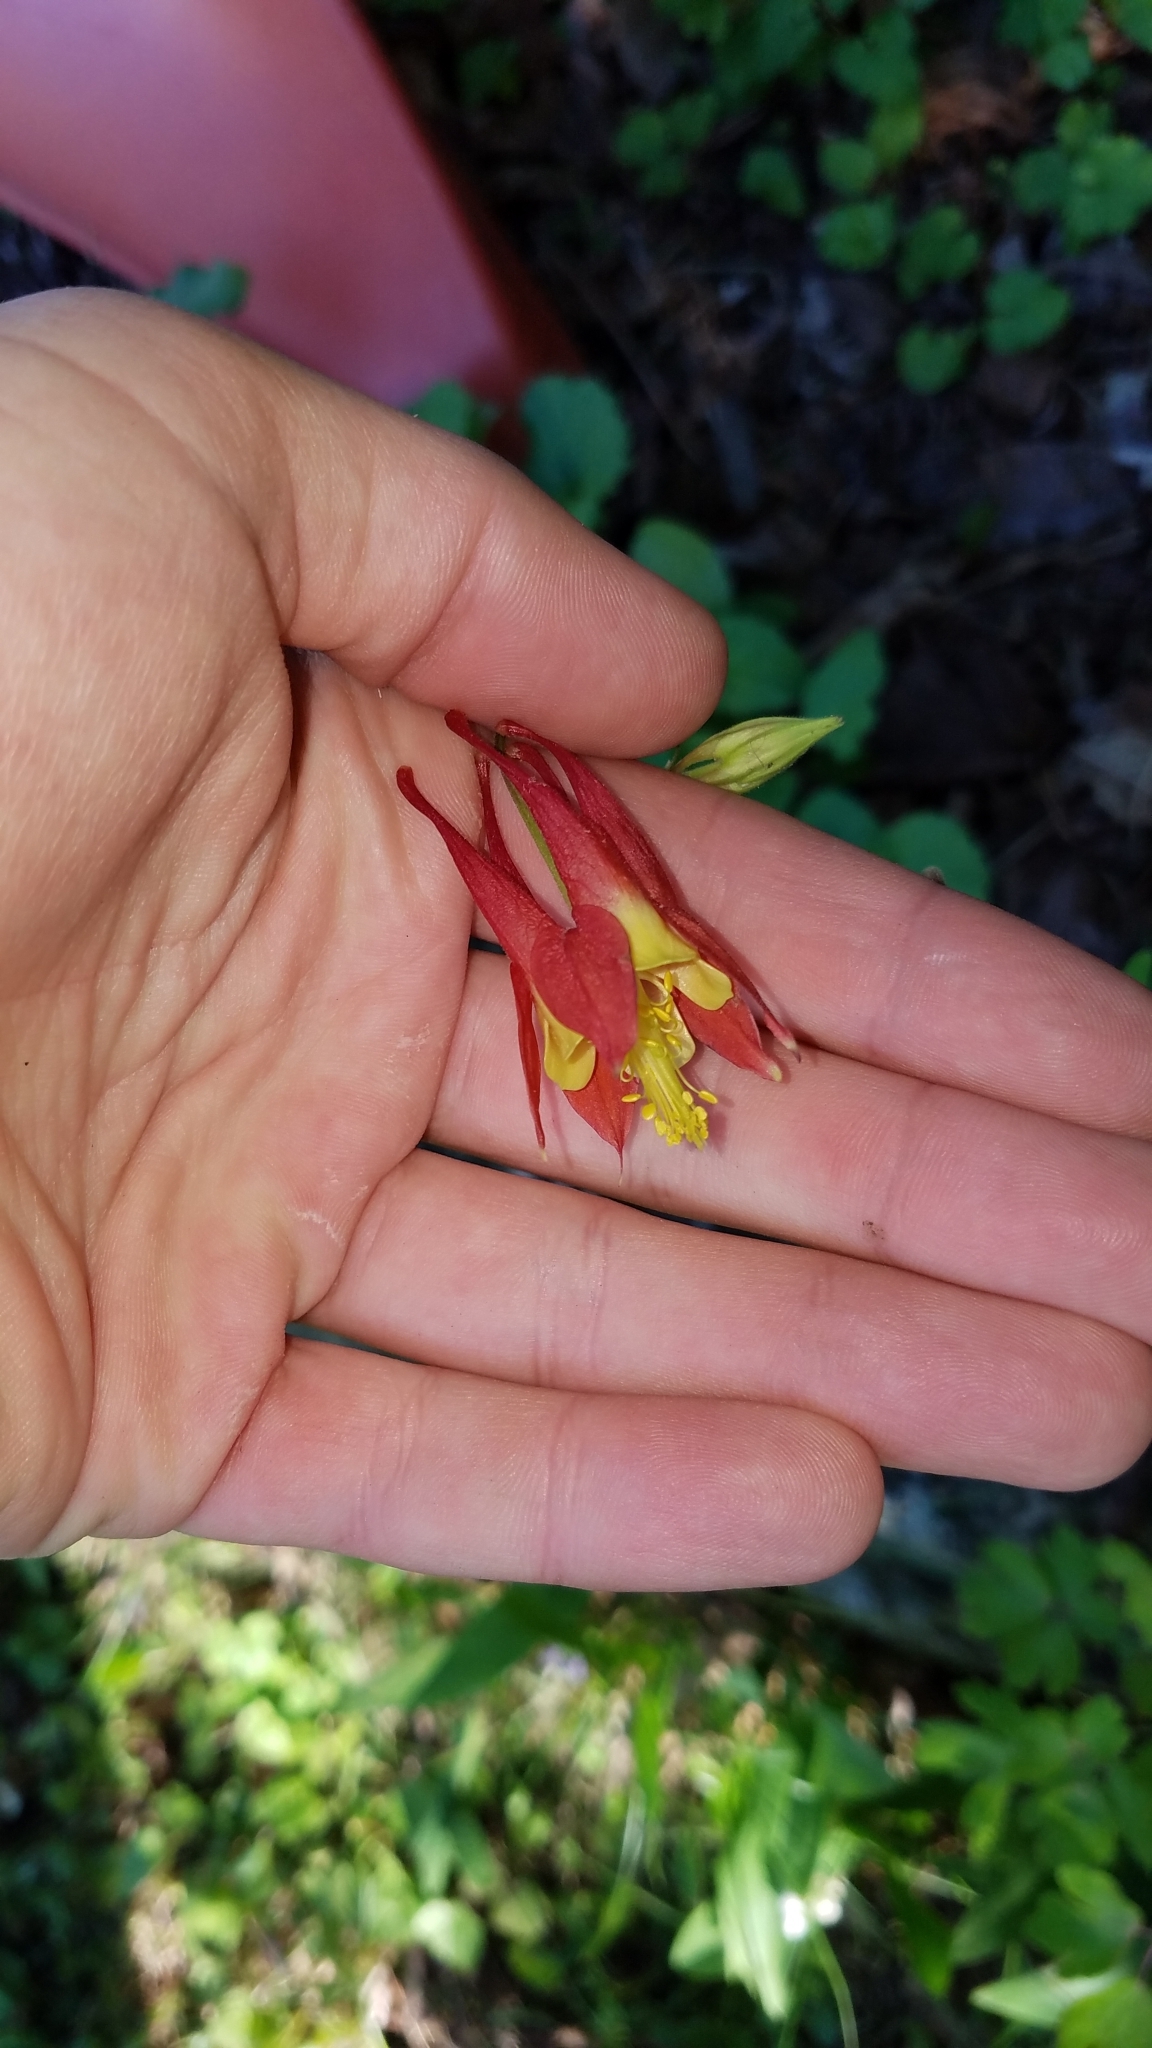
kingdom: Plantae
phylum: Tracheophyta
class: Magnoliopsida
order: Ranunculales
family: Ranunculaceae
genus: Aquilegia
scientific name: Aquilegia canadensis
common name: American columbine
